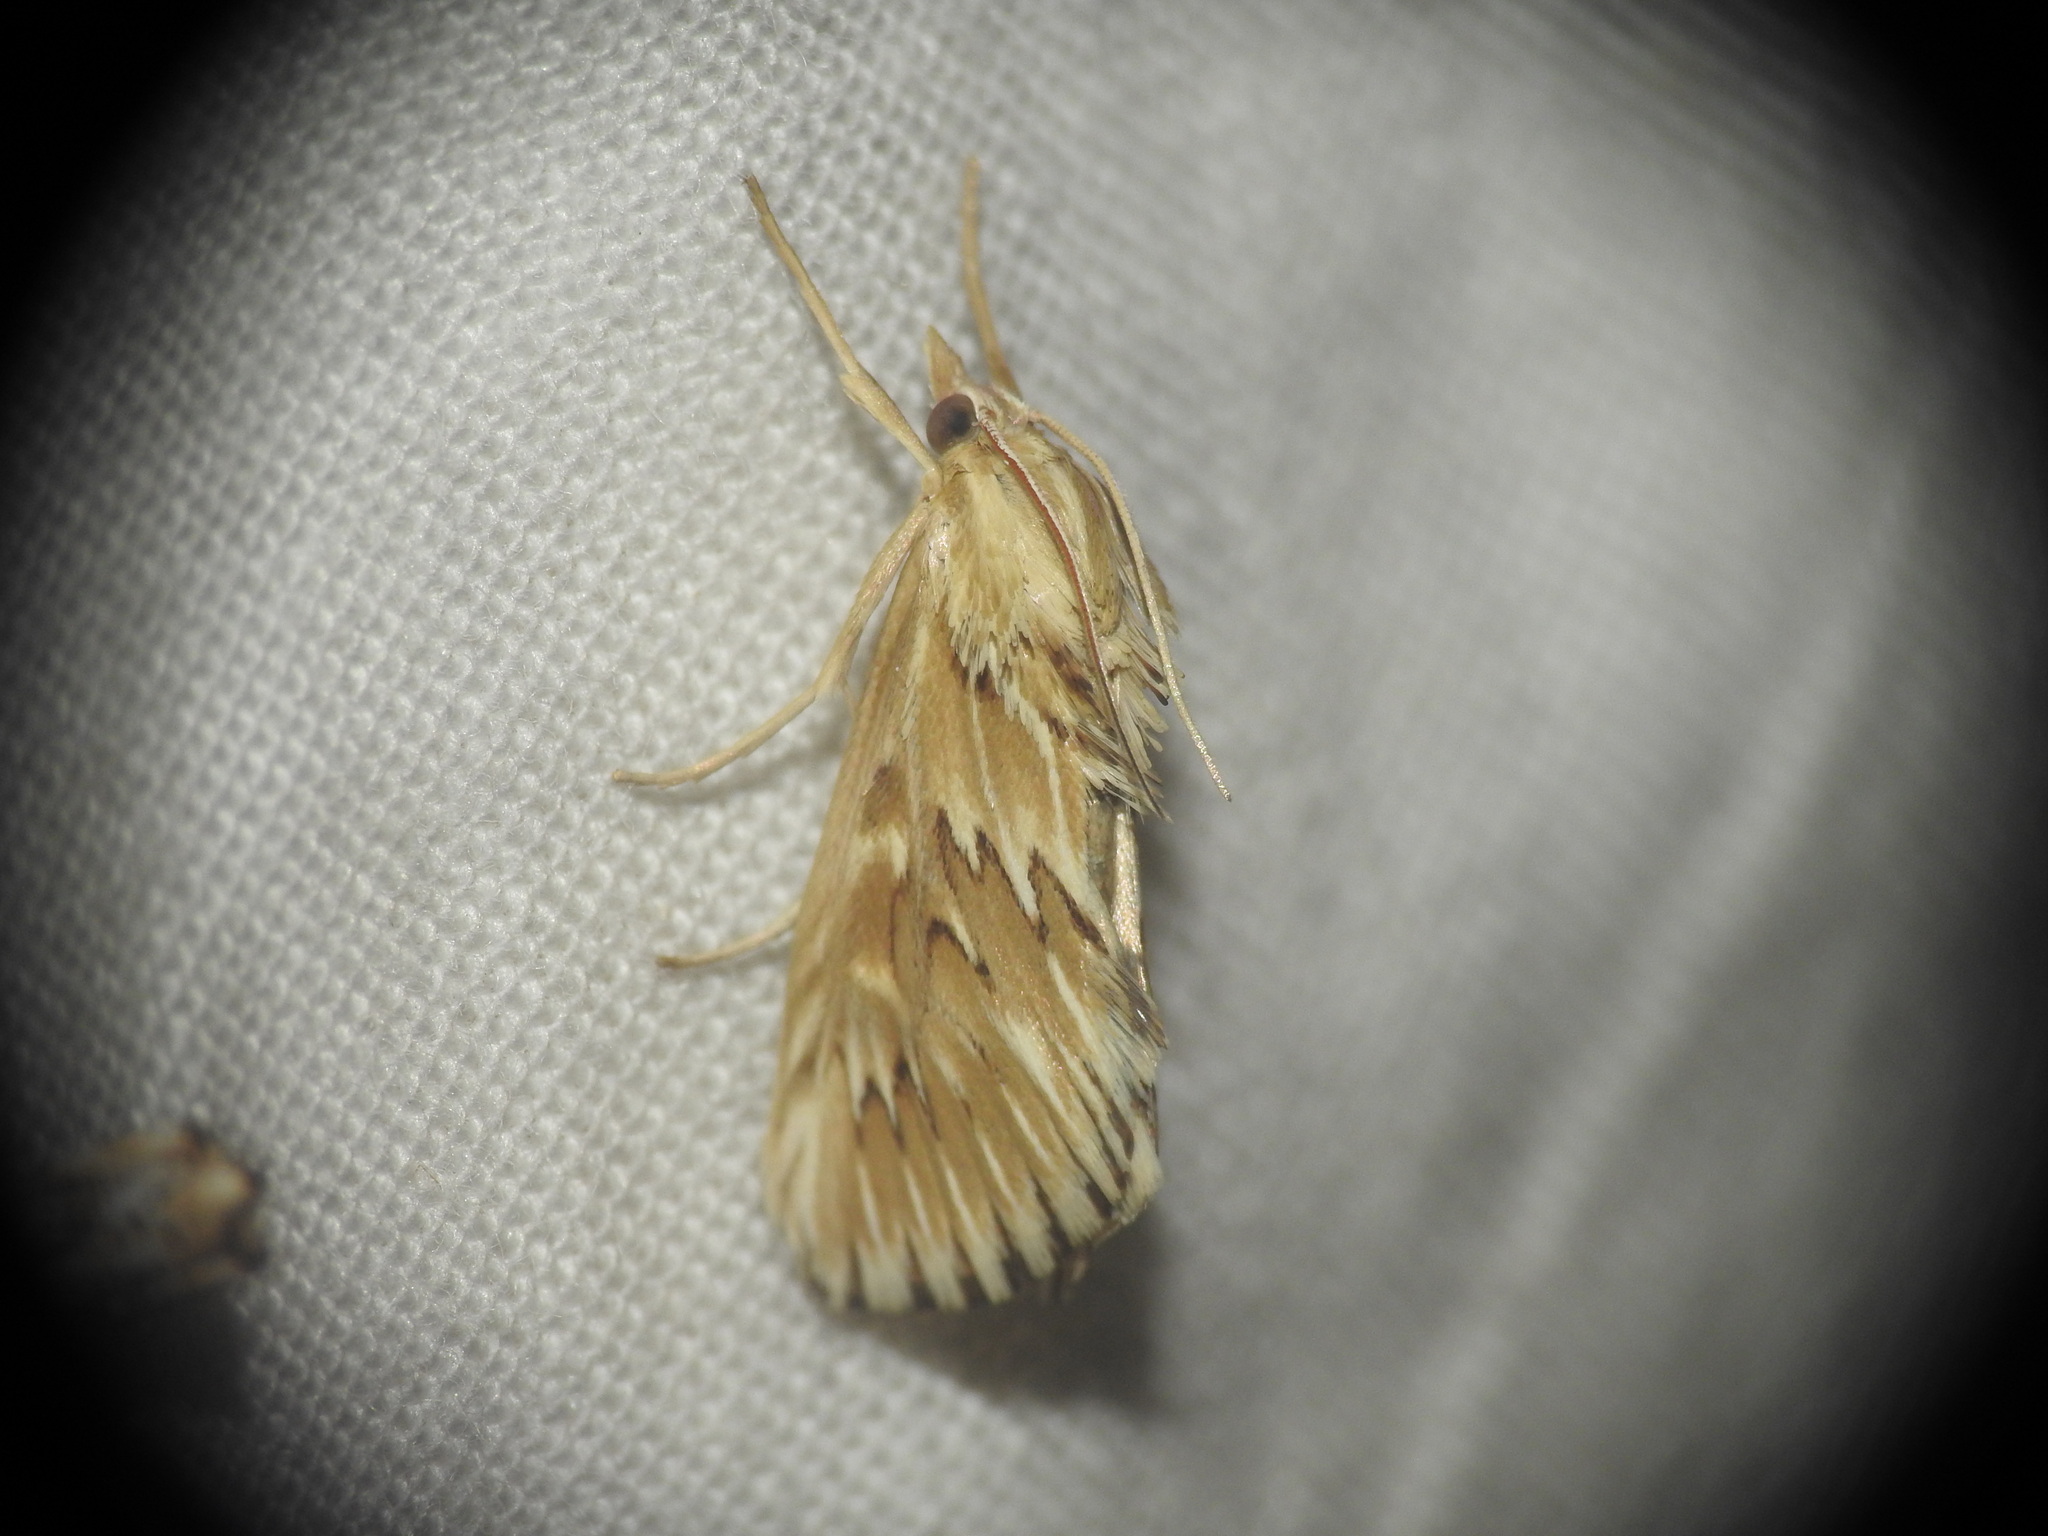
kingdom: Animalia
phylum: Arthropoda
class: Insecta
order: Lepidoptera
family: Crambidae
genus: Cynaeda
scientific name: Cynaeda dentalis
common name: Starry pearl
